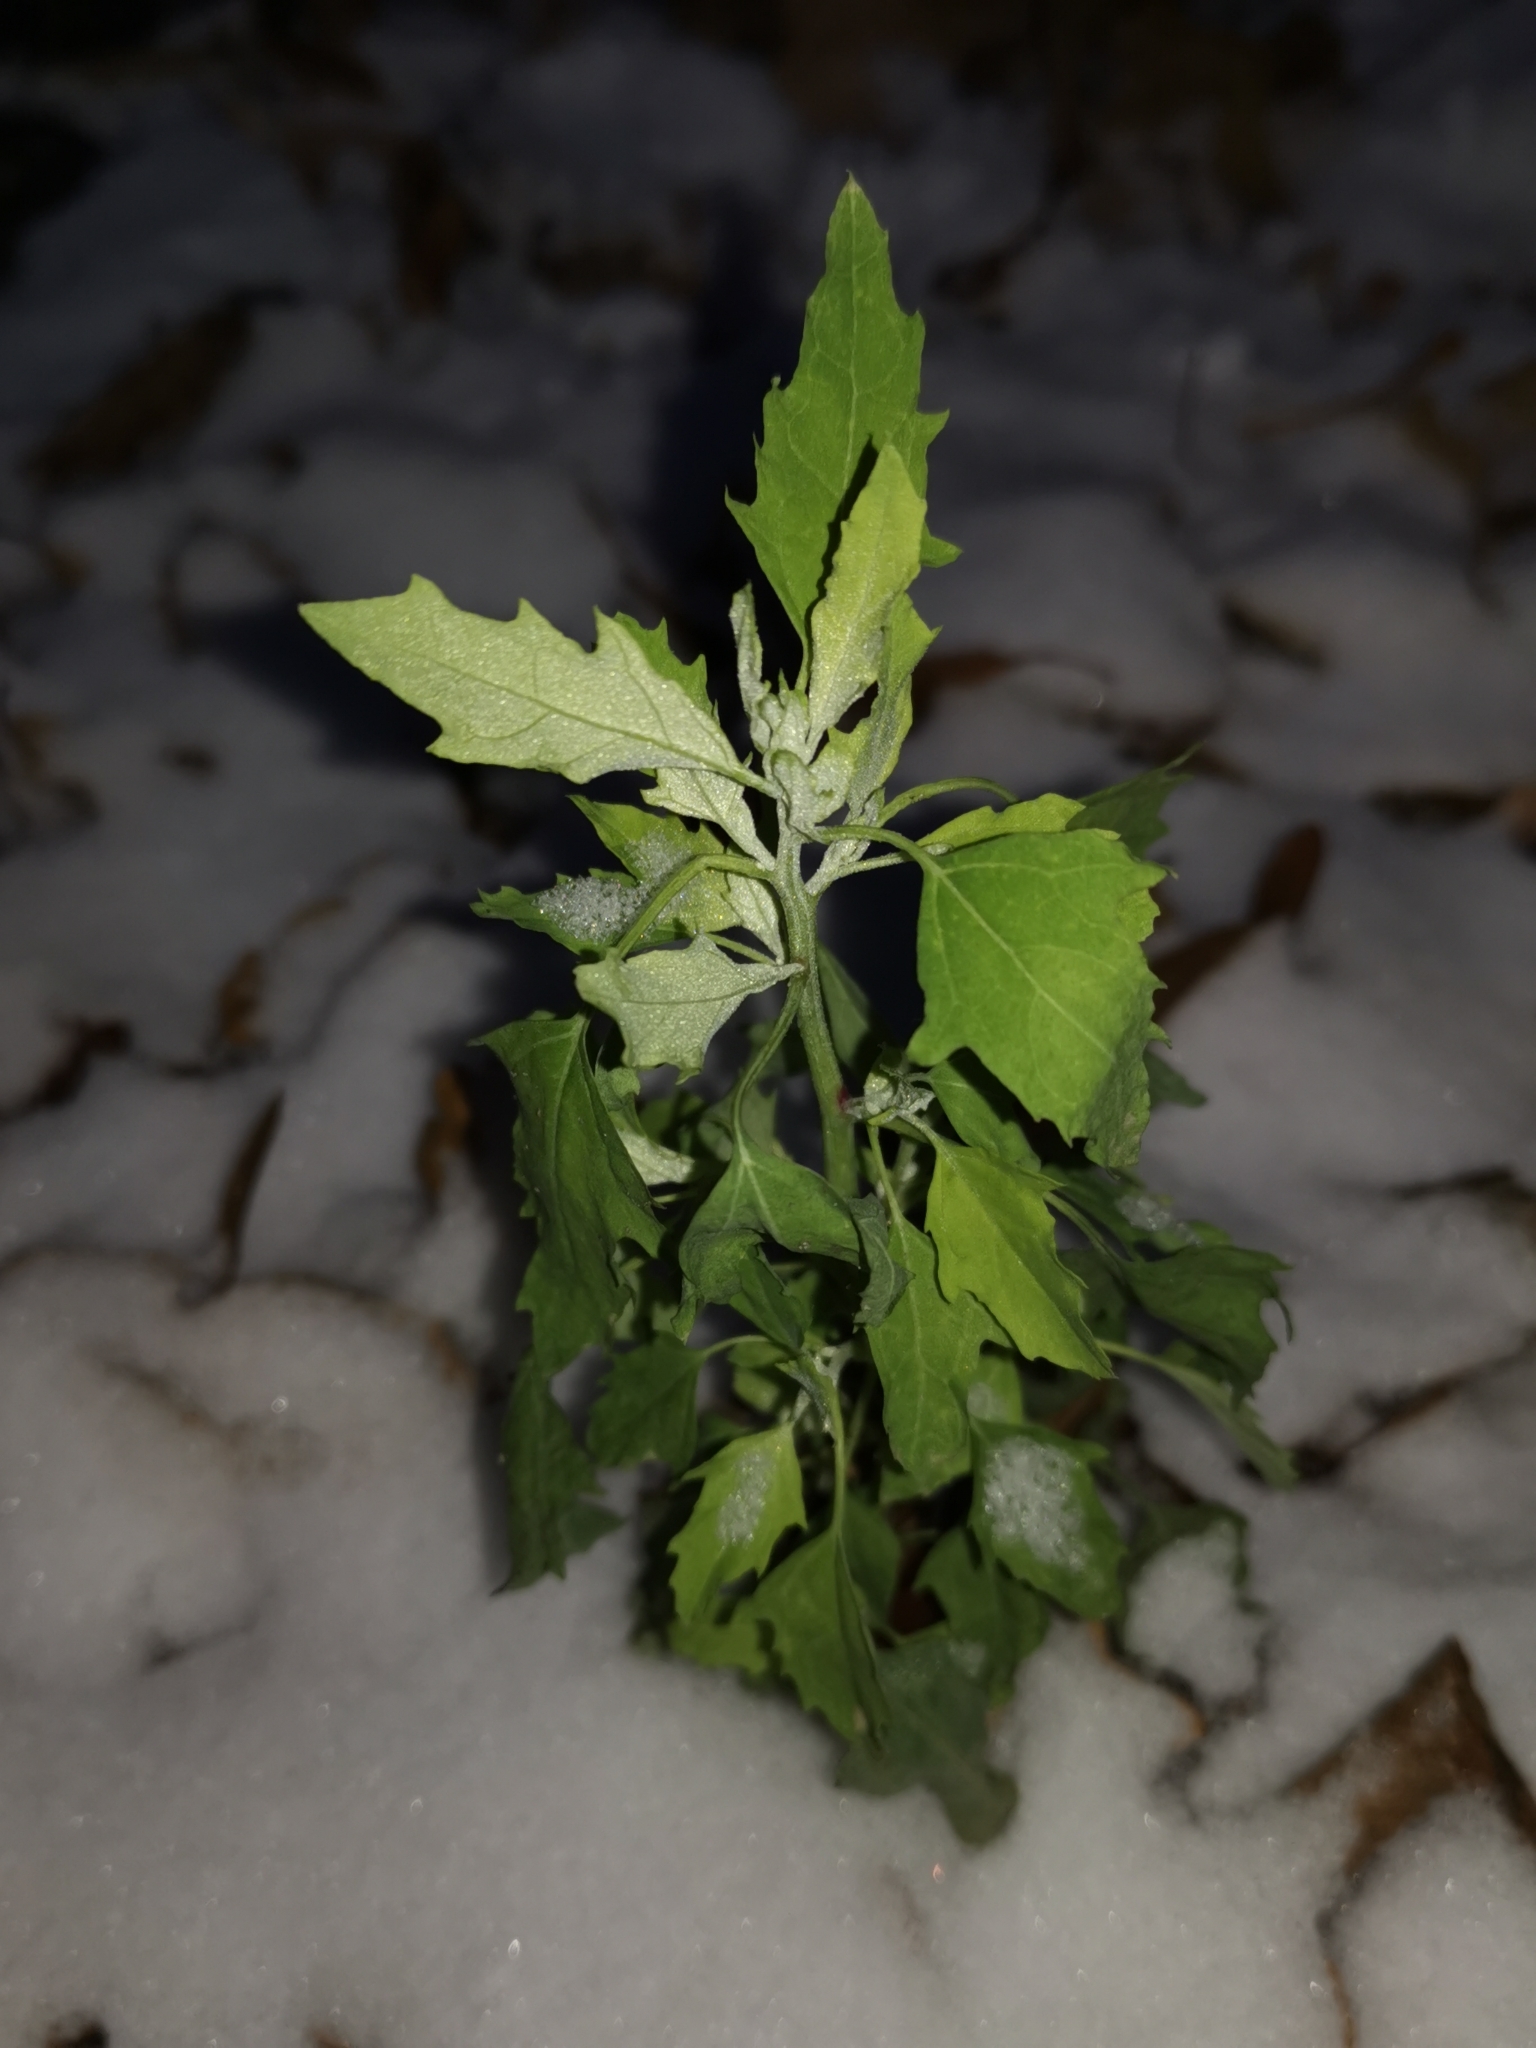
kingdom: Plantae
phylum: Tracheophyta
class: Magnoliopsida
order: Caryophyllales
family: Amaranthaceae
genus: Chenopodium
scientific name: Chenopodium album
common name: Fat-hen
